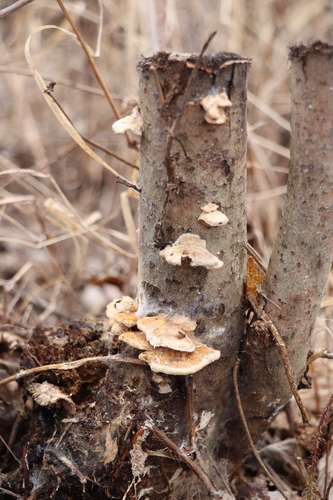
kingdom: Fungi
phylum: Basidiomycota
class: Agaricomycetes
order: Polyporales
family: Polyporaceae
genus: Trametes
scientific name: Trametes ochracea
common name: Ochre bracket
